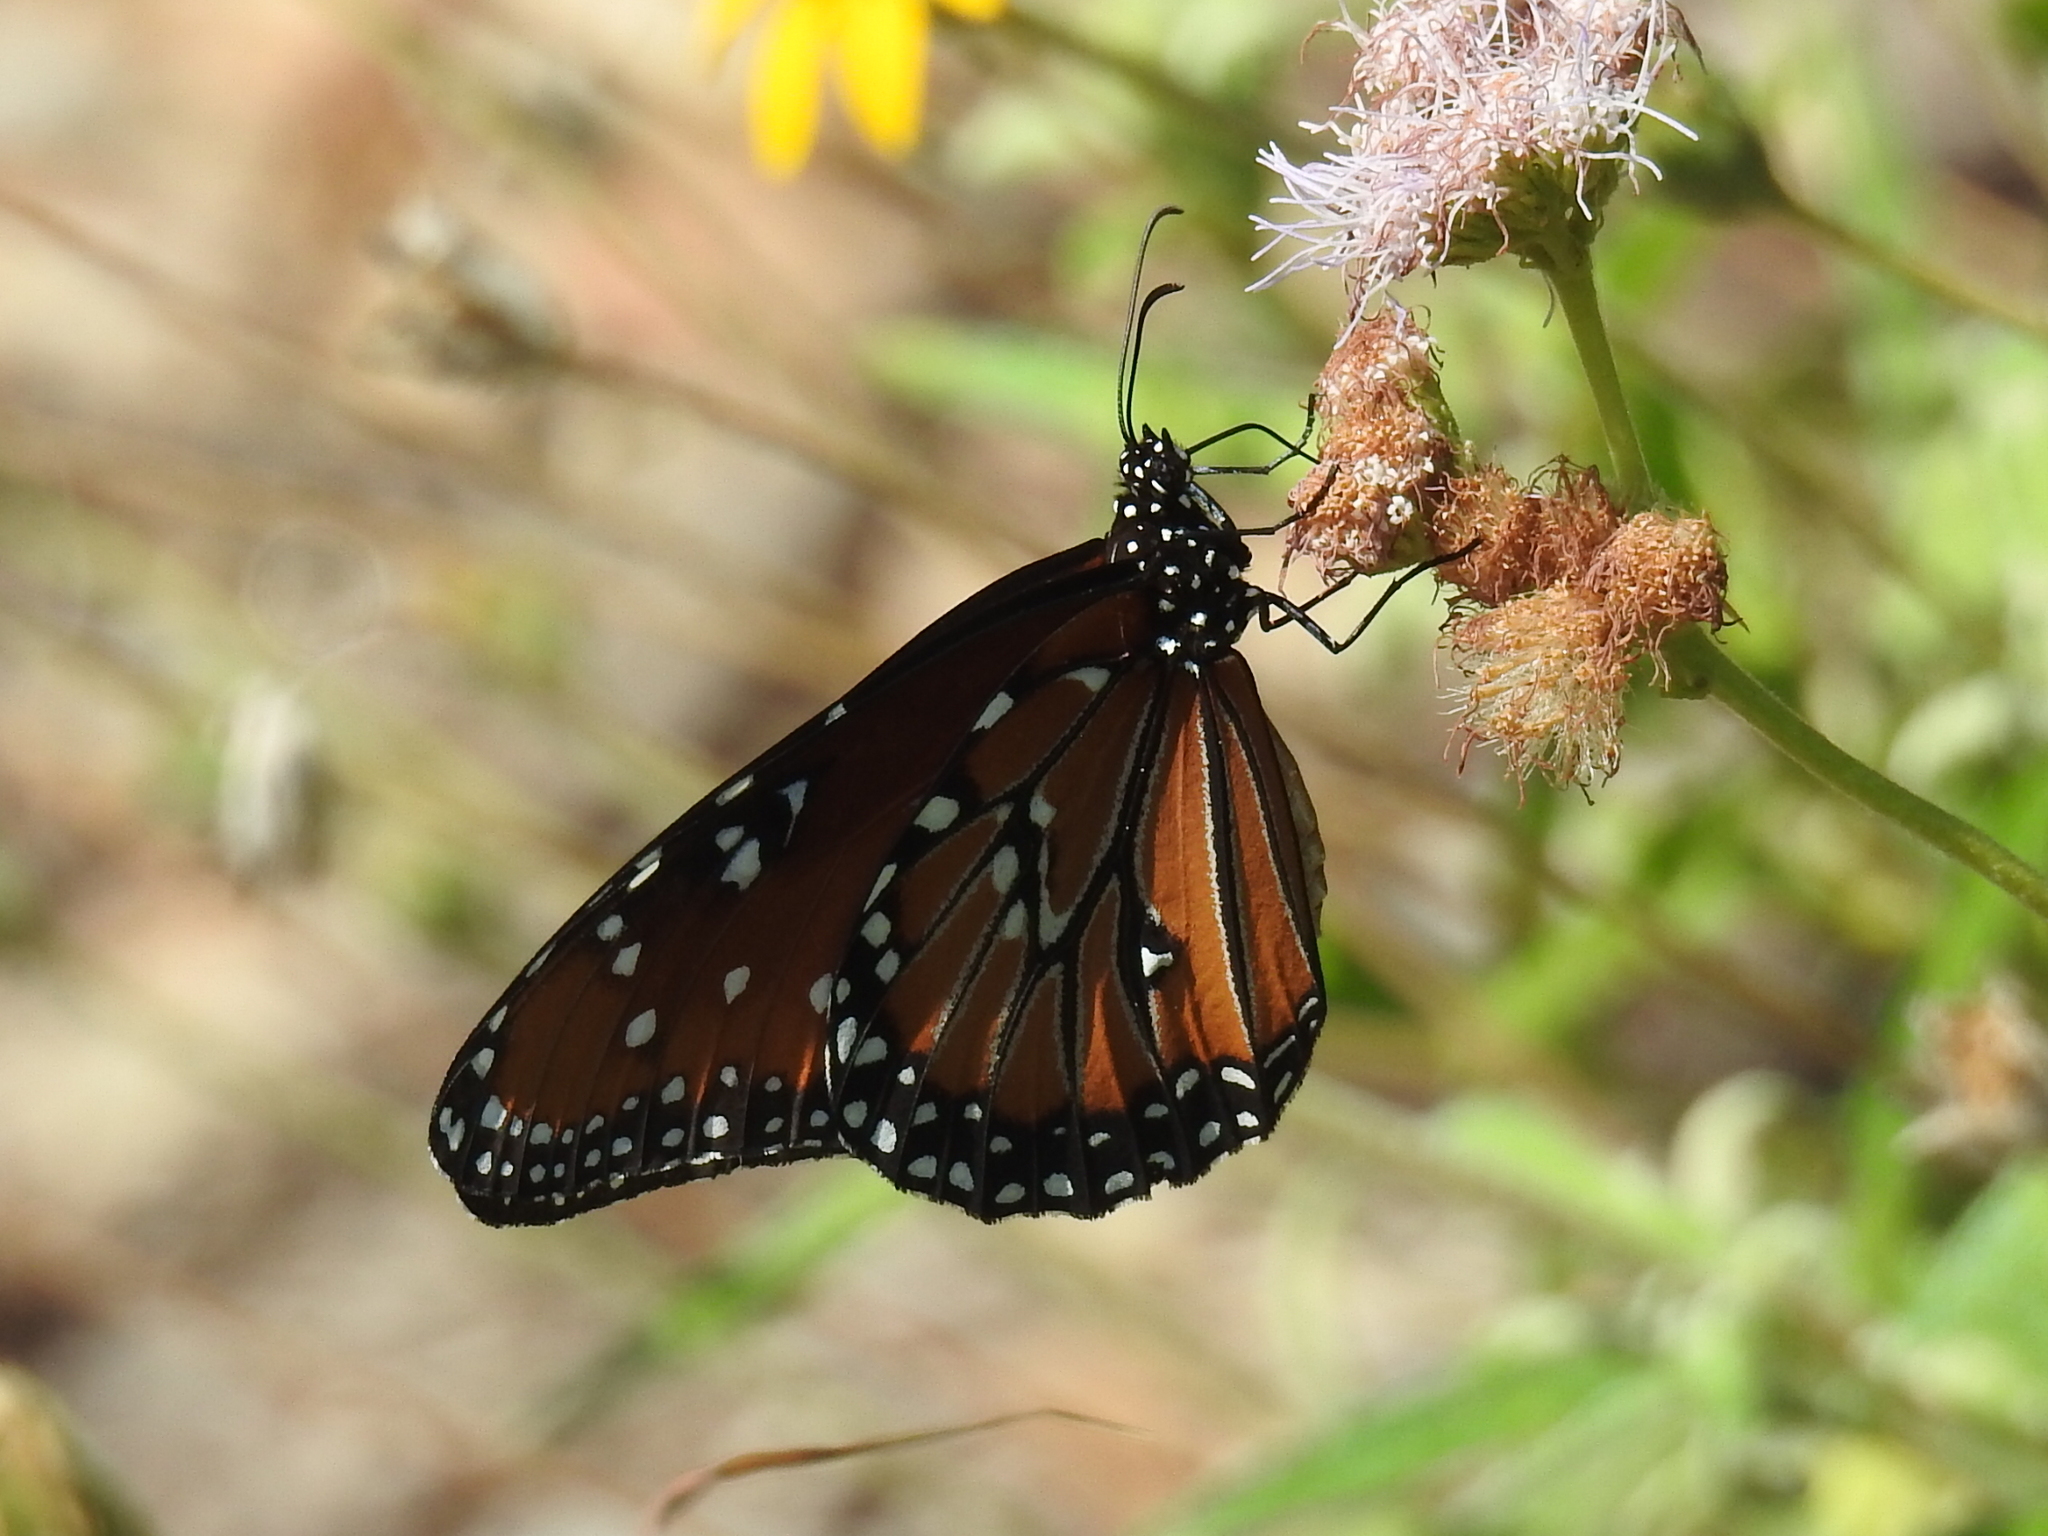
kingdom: Animalia
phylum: Arthropoda
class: Insecta
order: Lepidoptera
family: Nymphalidae
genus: Danaus
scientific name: Danaus gilippus
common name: Queen
